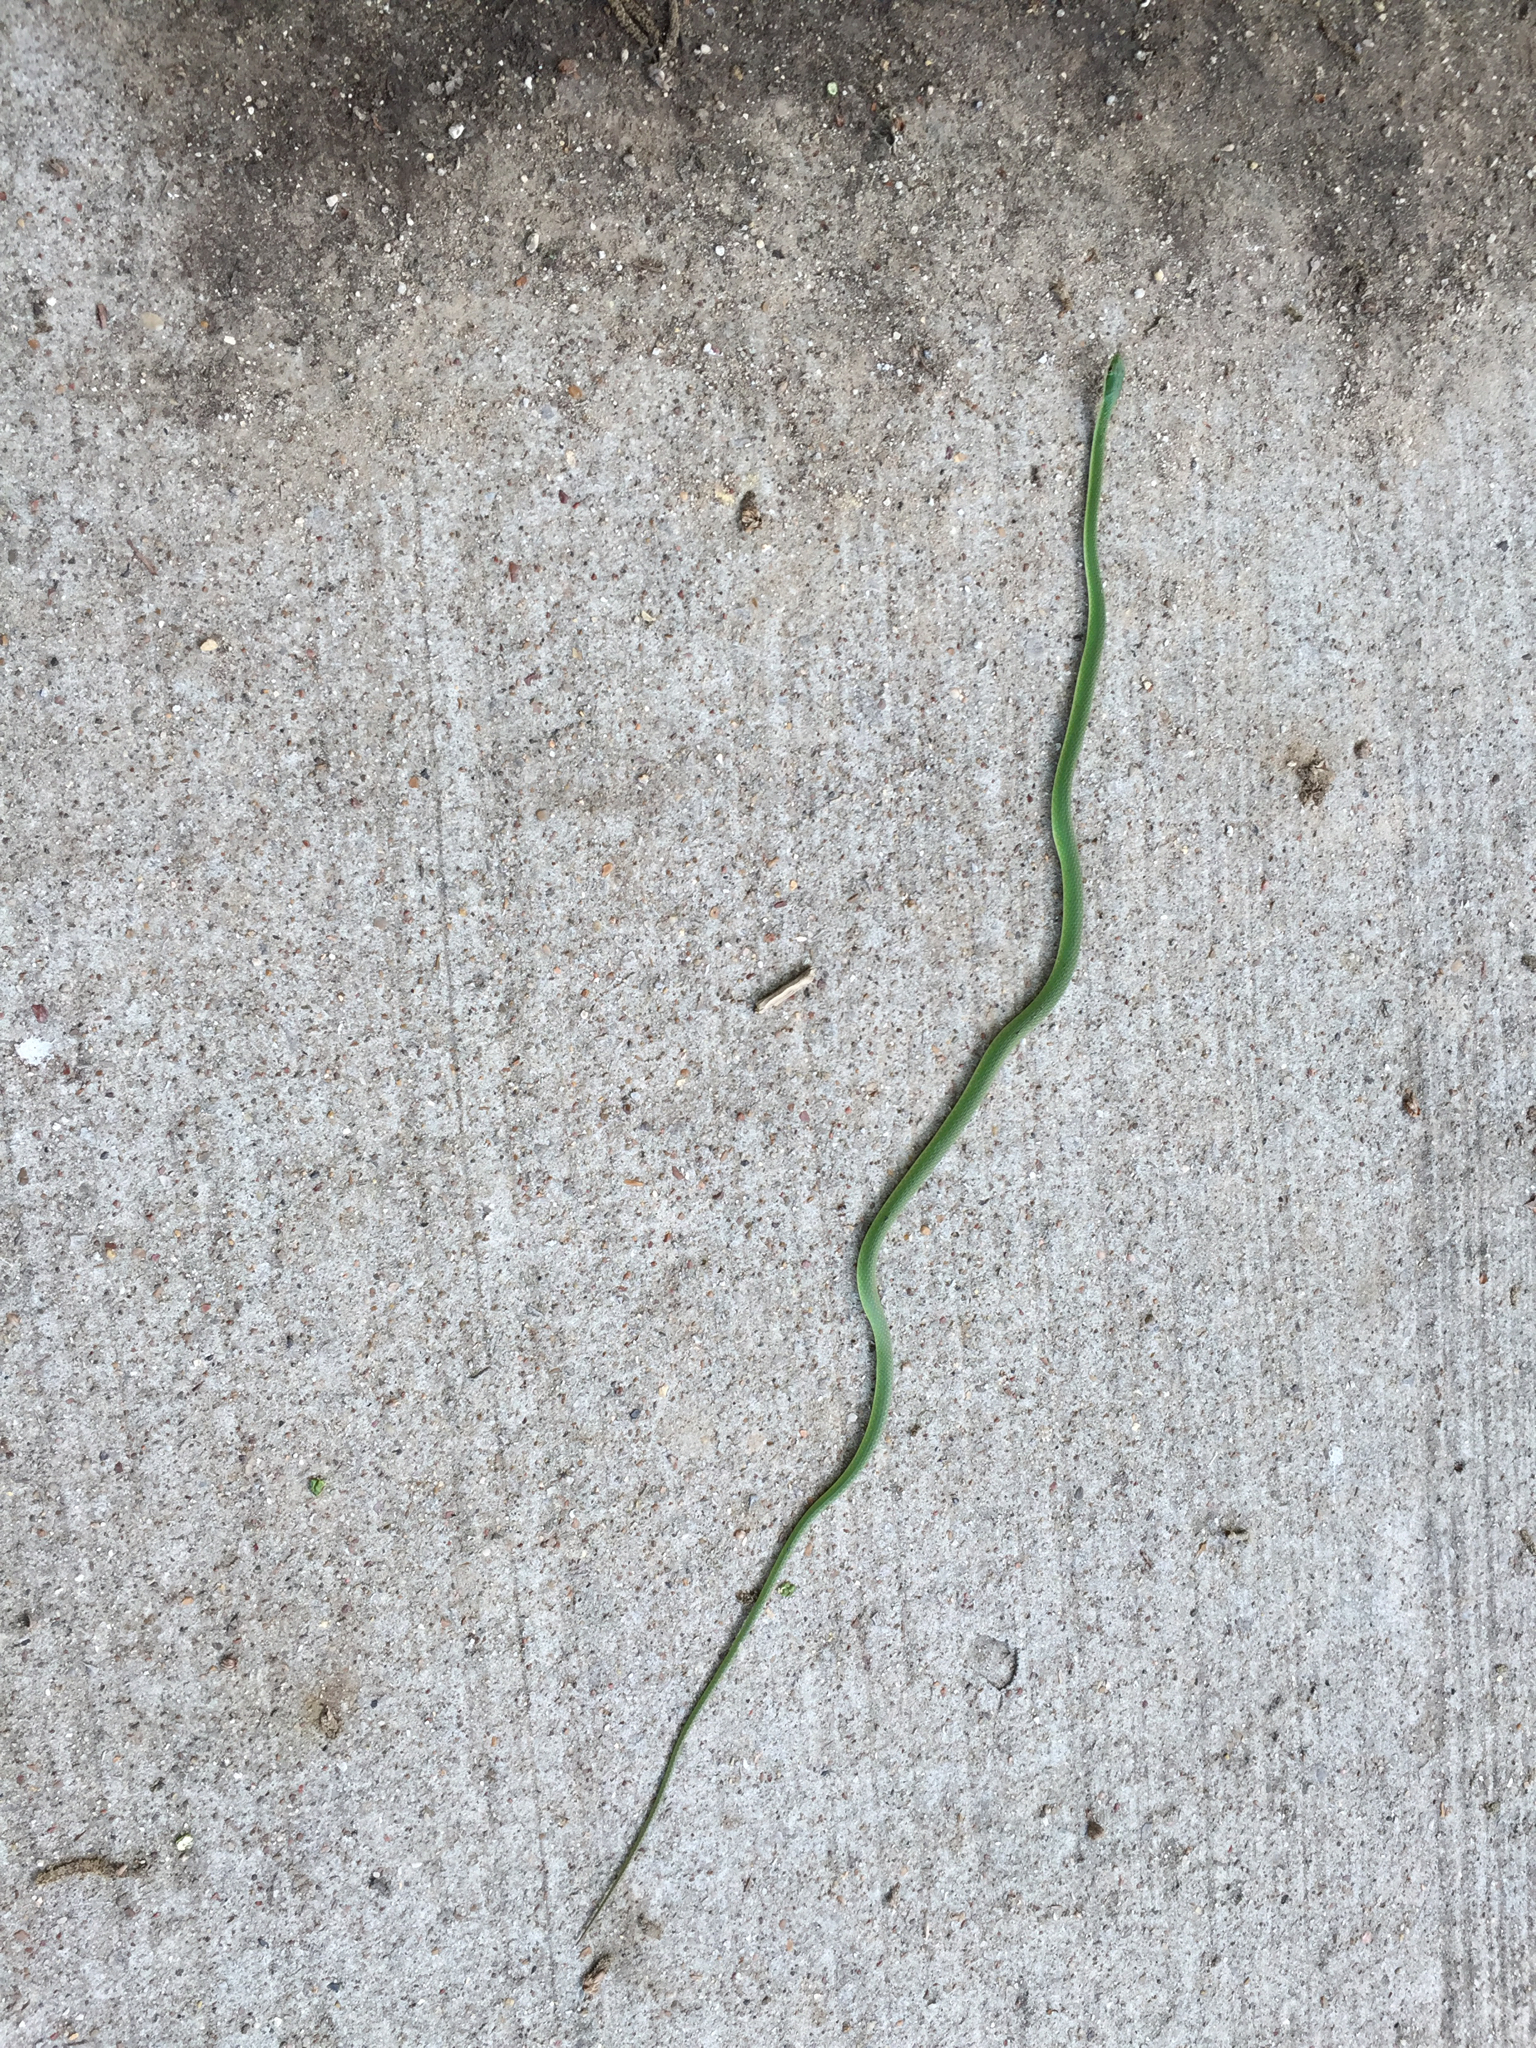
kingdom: Animalia
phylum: Chordata
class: Squamata
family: Colubridae
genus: Opheodrys
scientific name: Opheodrys aestivus
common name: Rough greensnake
